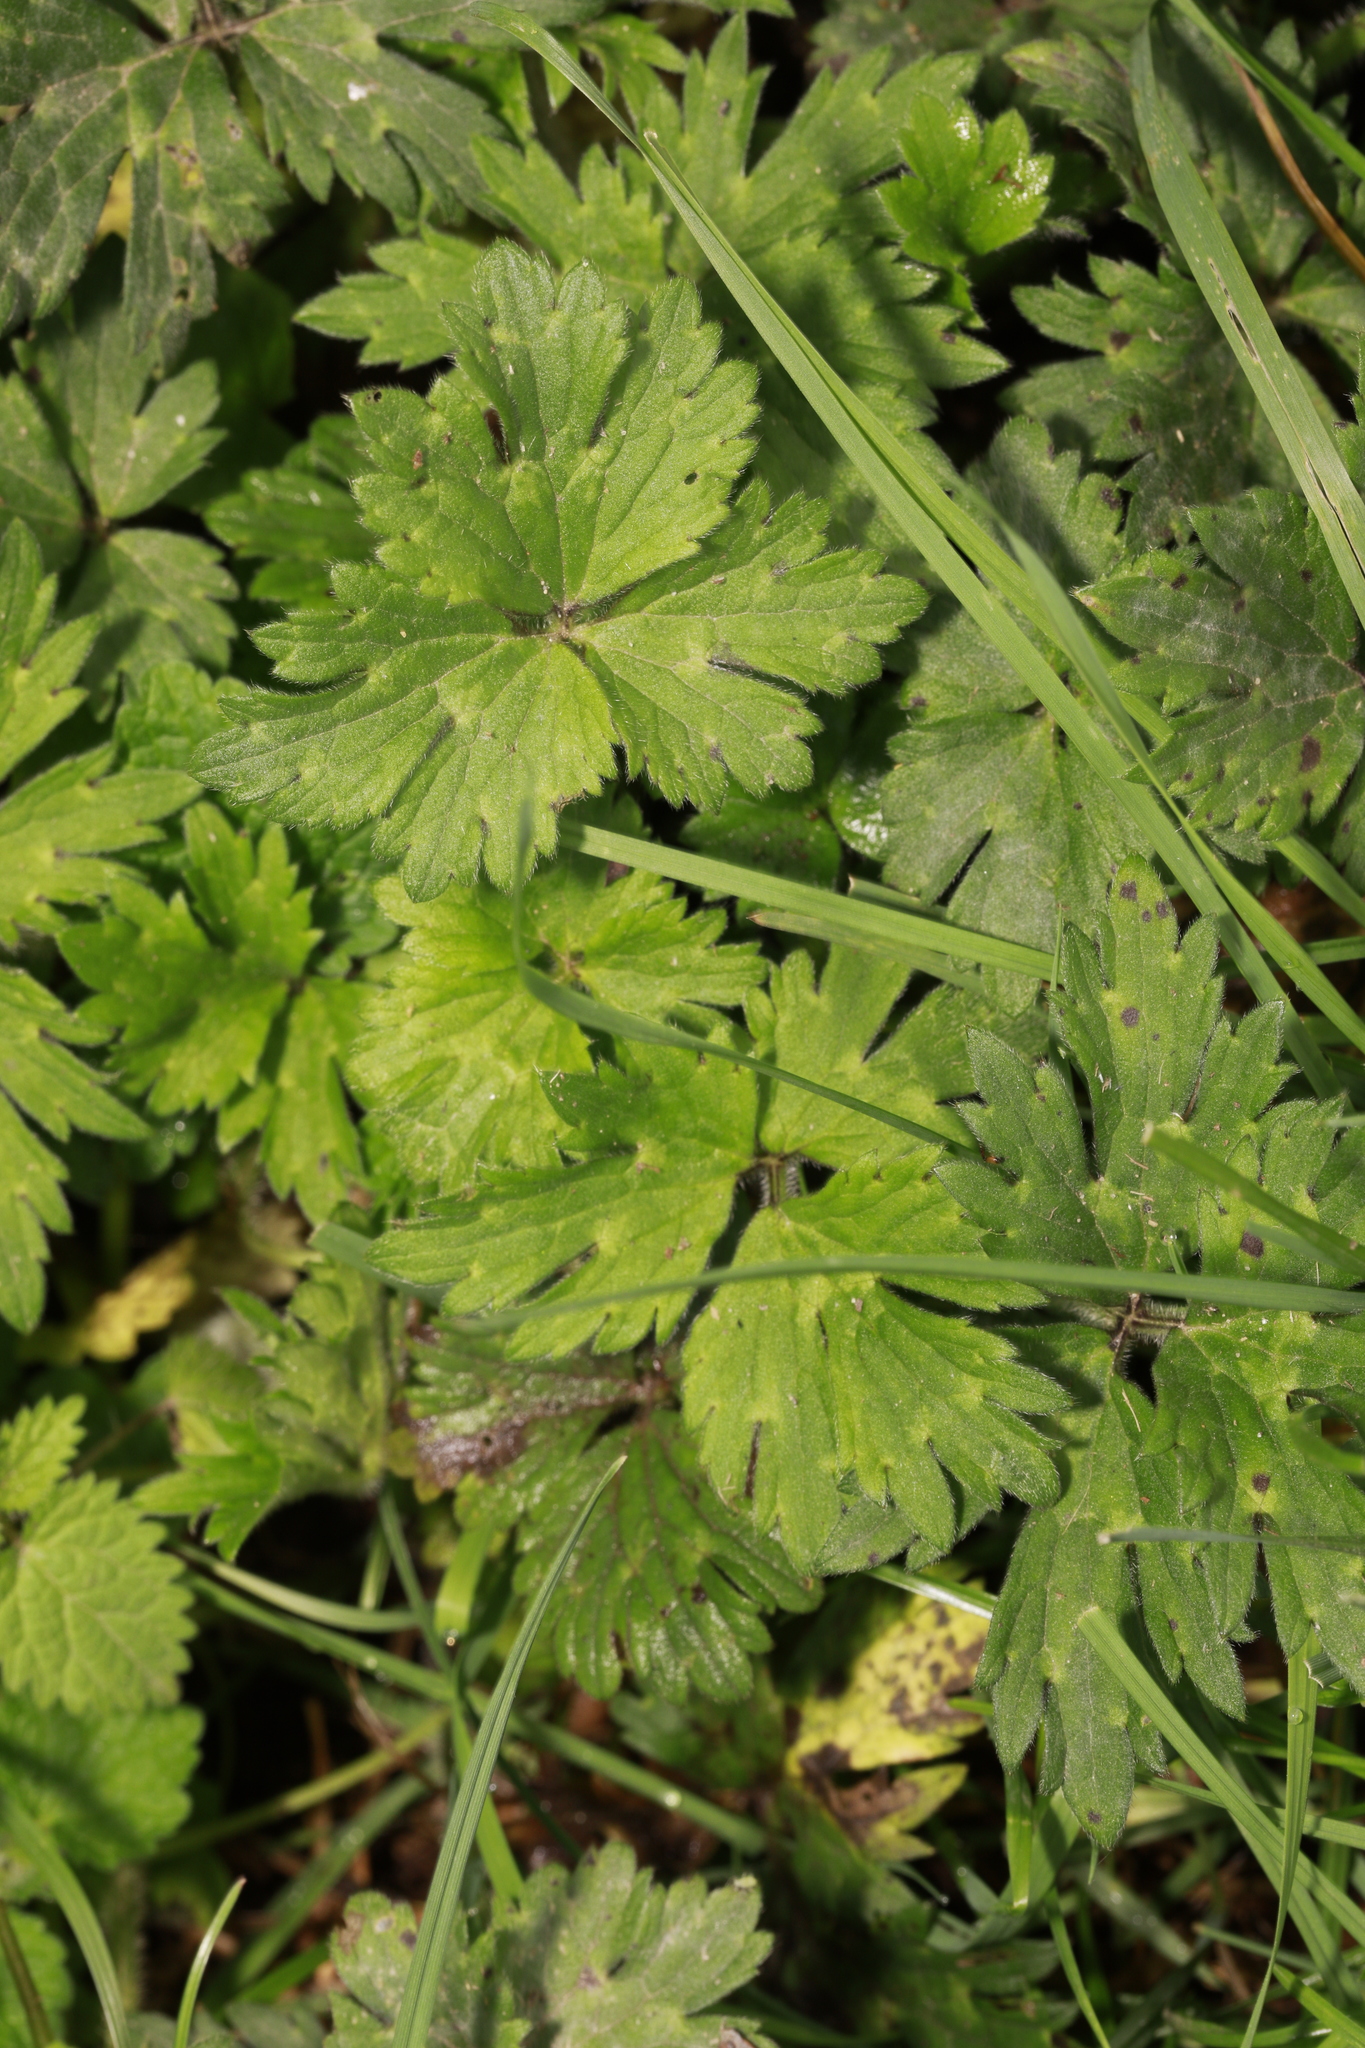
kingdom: Plantae
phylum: Tracheophyta
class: Magnoliopsida
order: Ranunculales
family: Ranunculaceae
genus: Ranunculus
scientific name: Ranunculus repens
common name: Creeping buttercup
